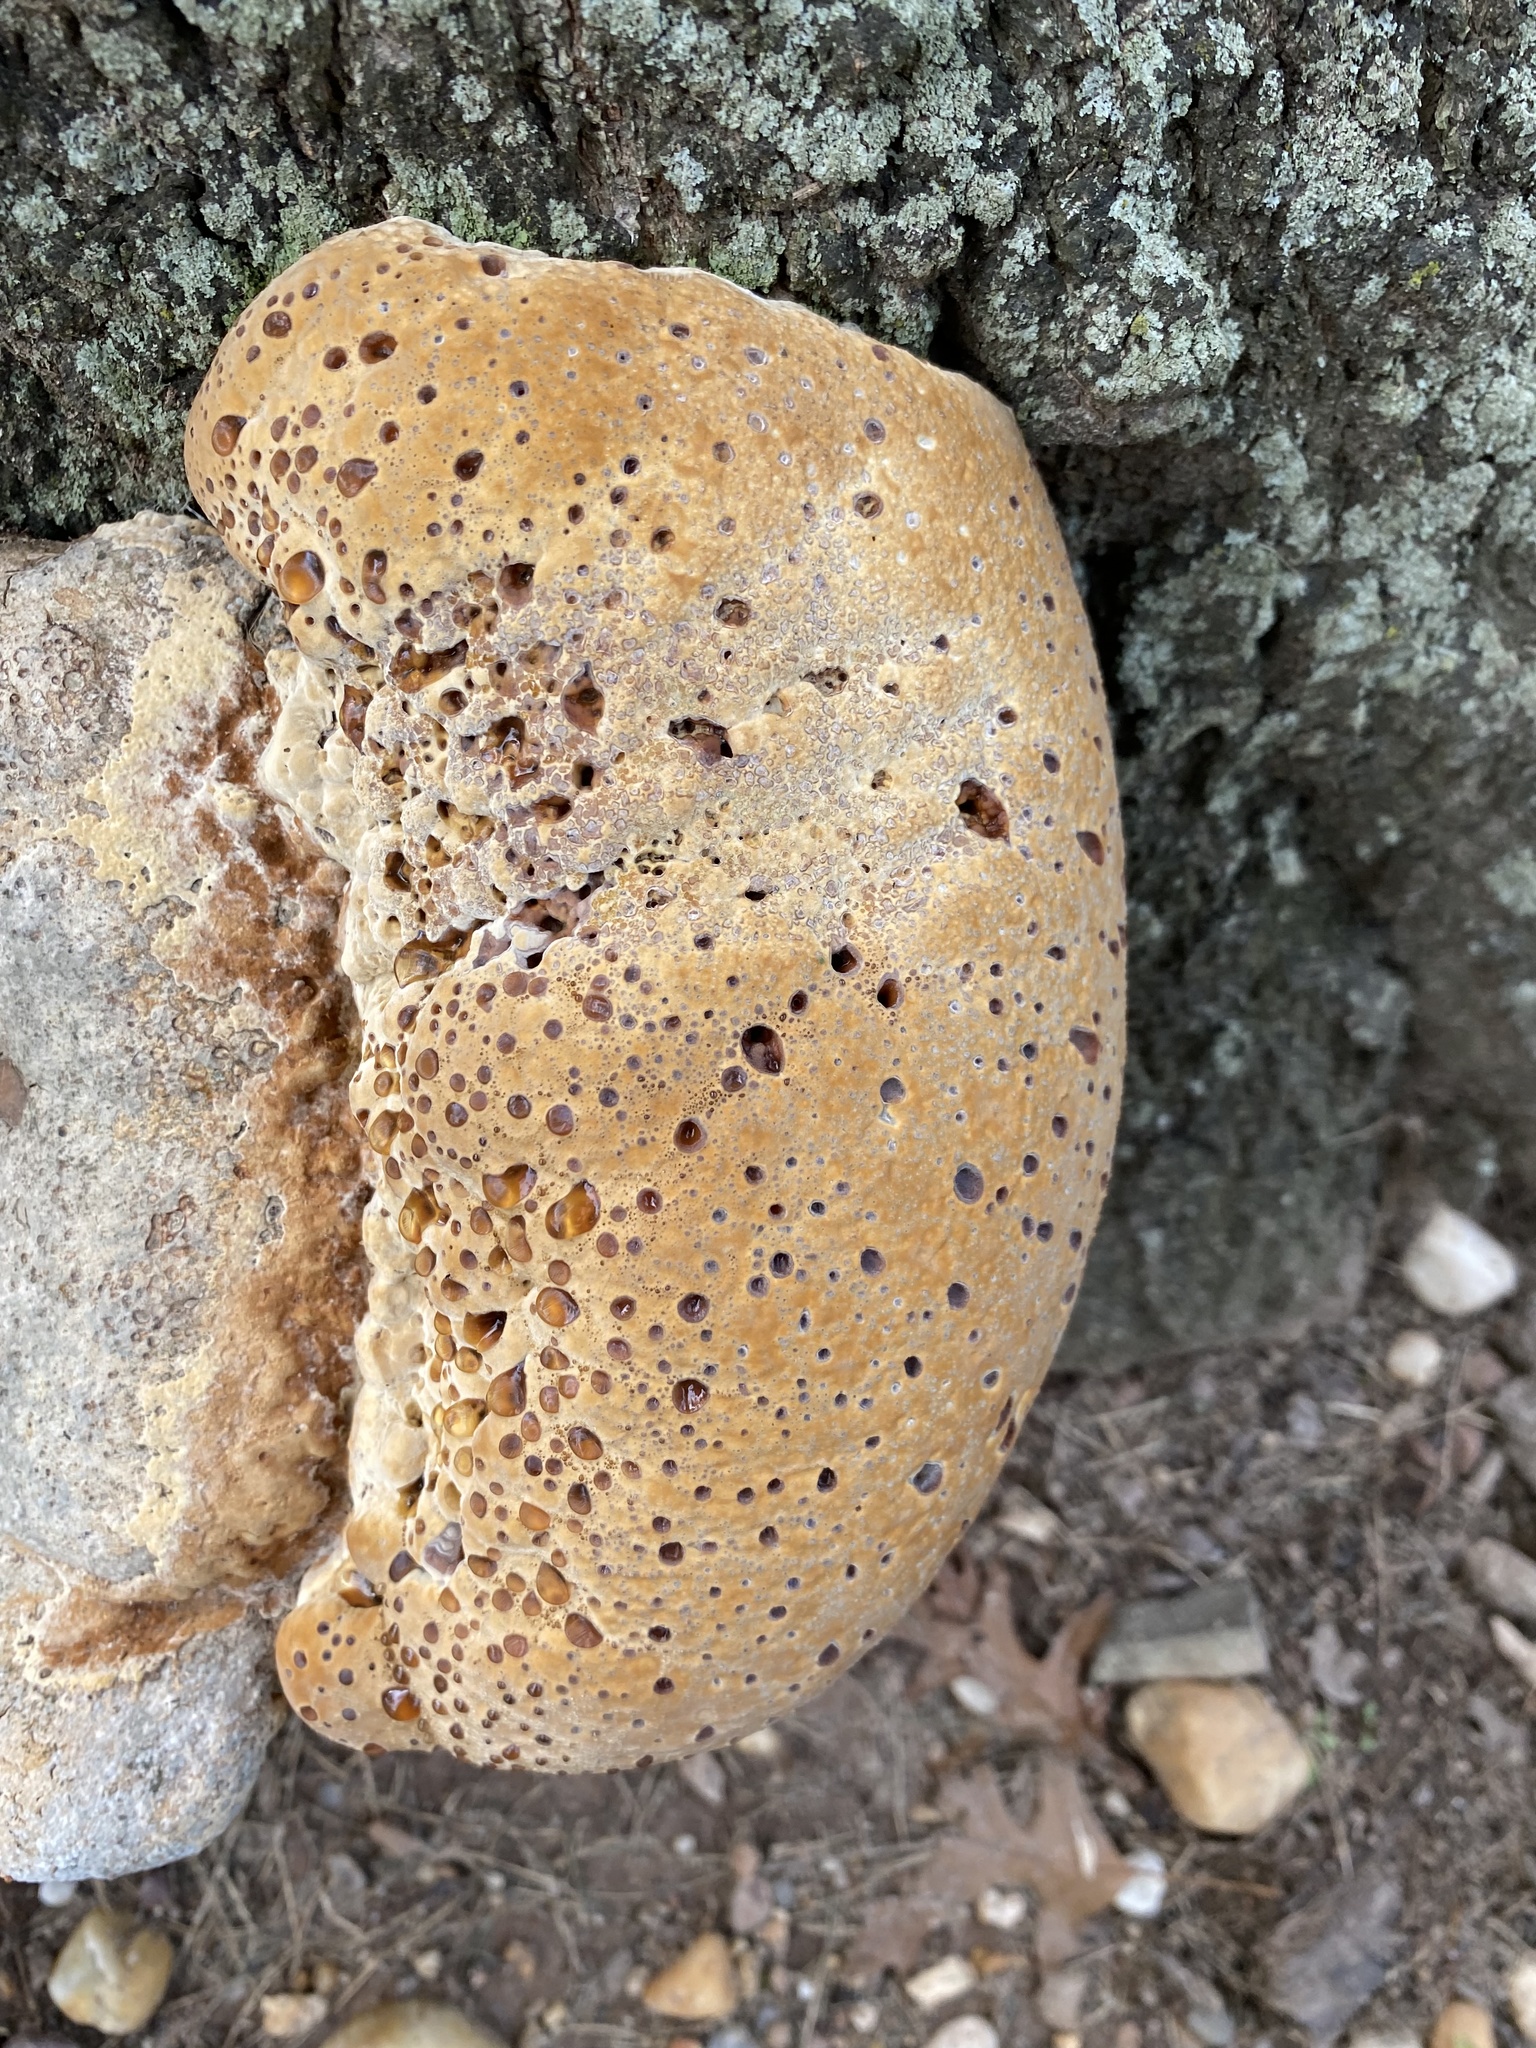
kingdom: Fungi
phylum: Basidiomycota
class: Agaricomycetes
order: Hymenochaetales
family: Hymenochaetaceae
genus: Pseudoinonotus
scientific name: Pseudoinonotus dryadeus
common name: Oak bracket
